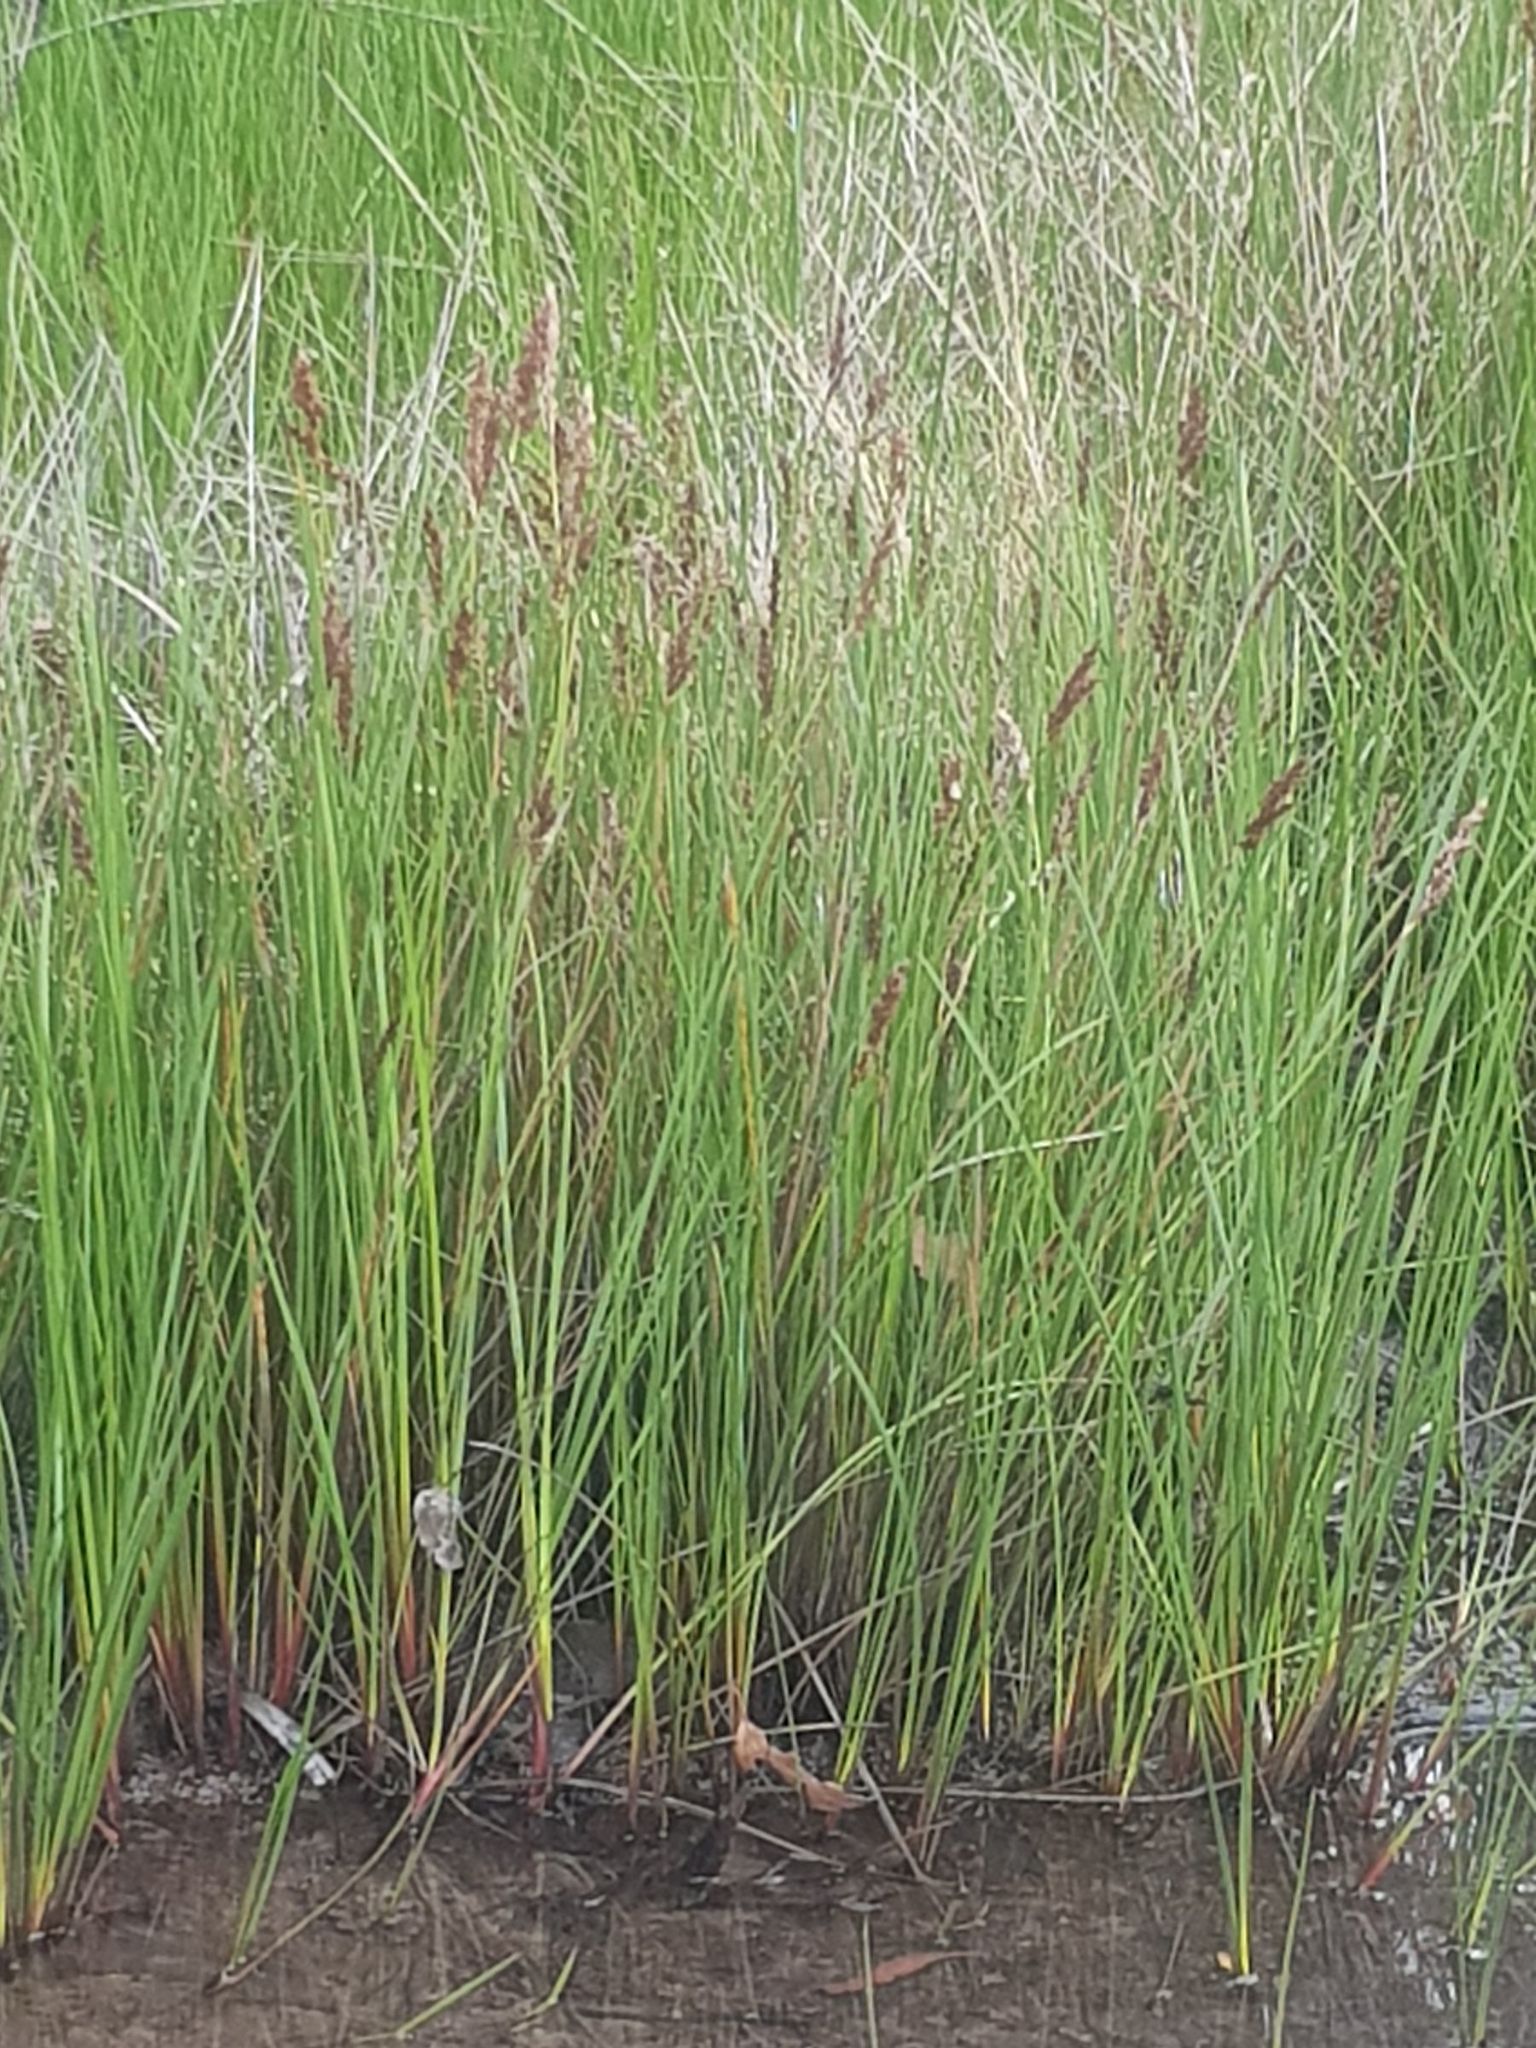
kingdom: Plantae
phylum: Tracheophyta
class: Liliopsida
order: Poales
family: Cyperaceae
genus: Machaerina
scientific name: Machaerina tetragona
